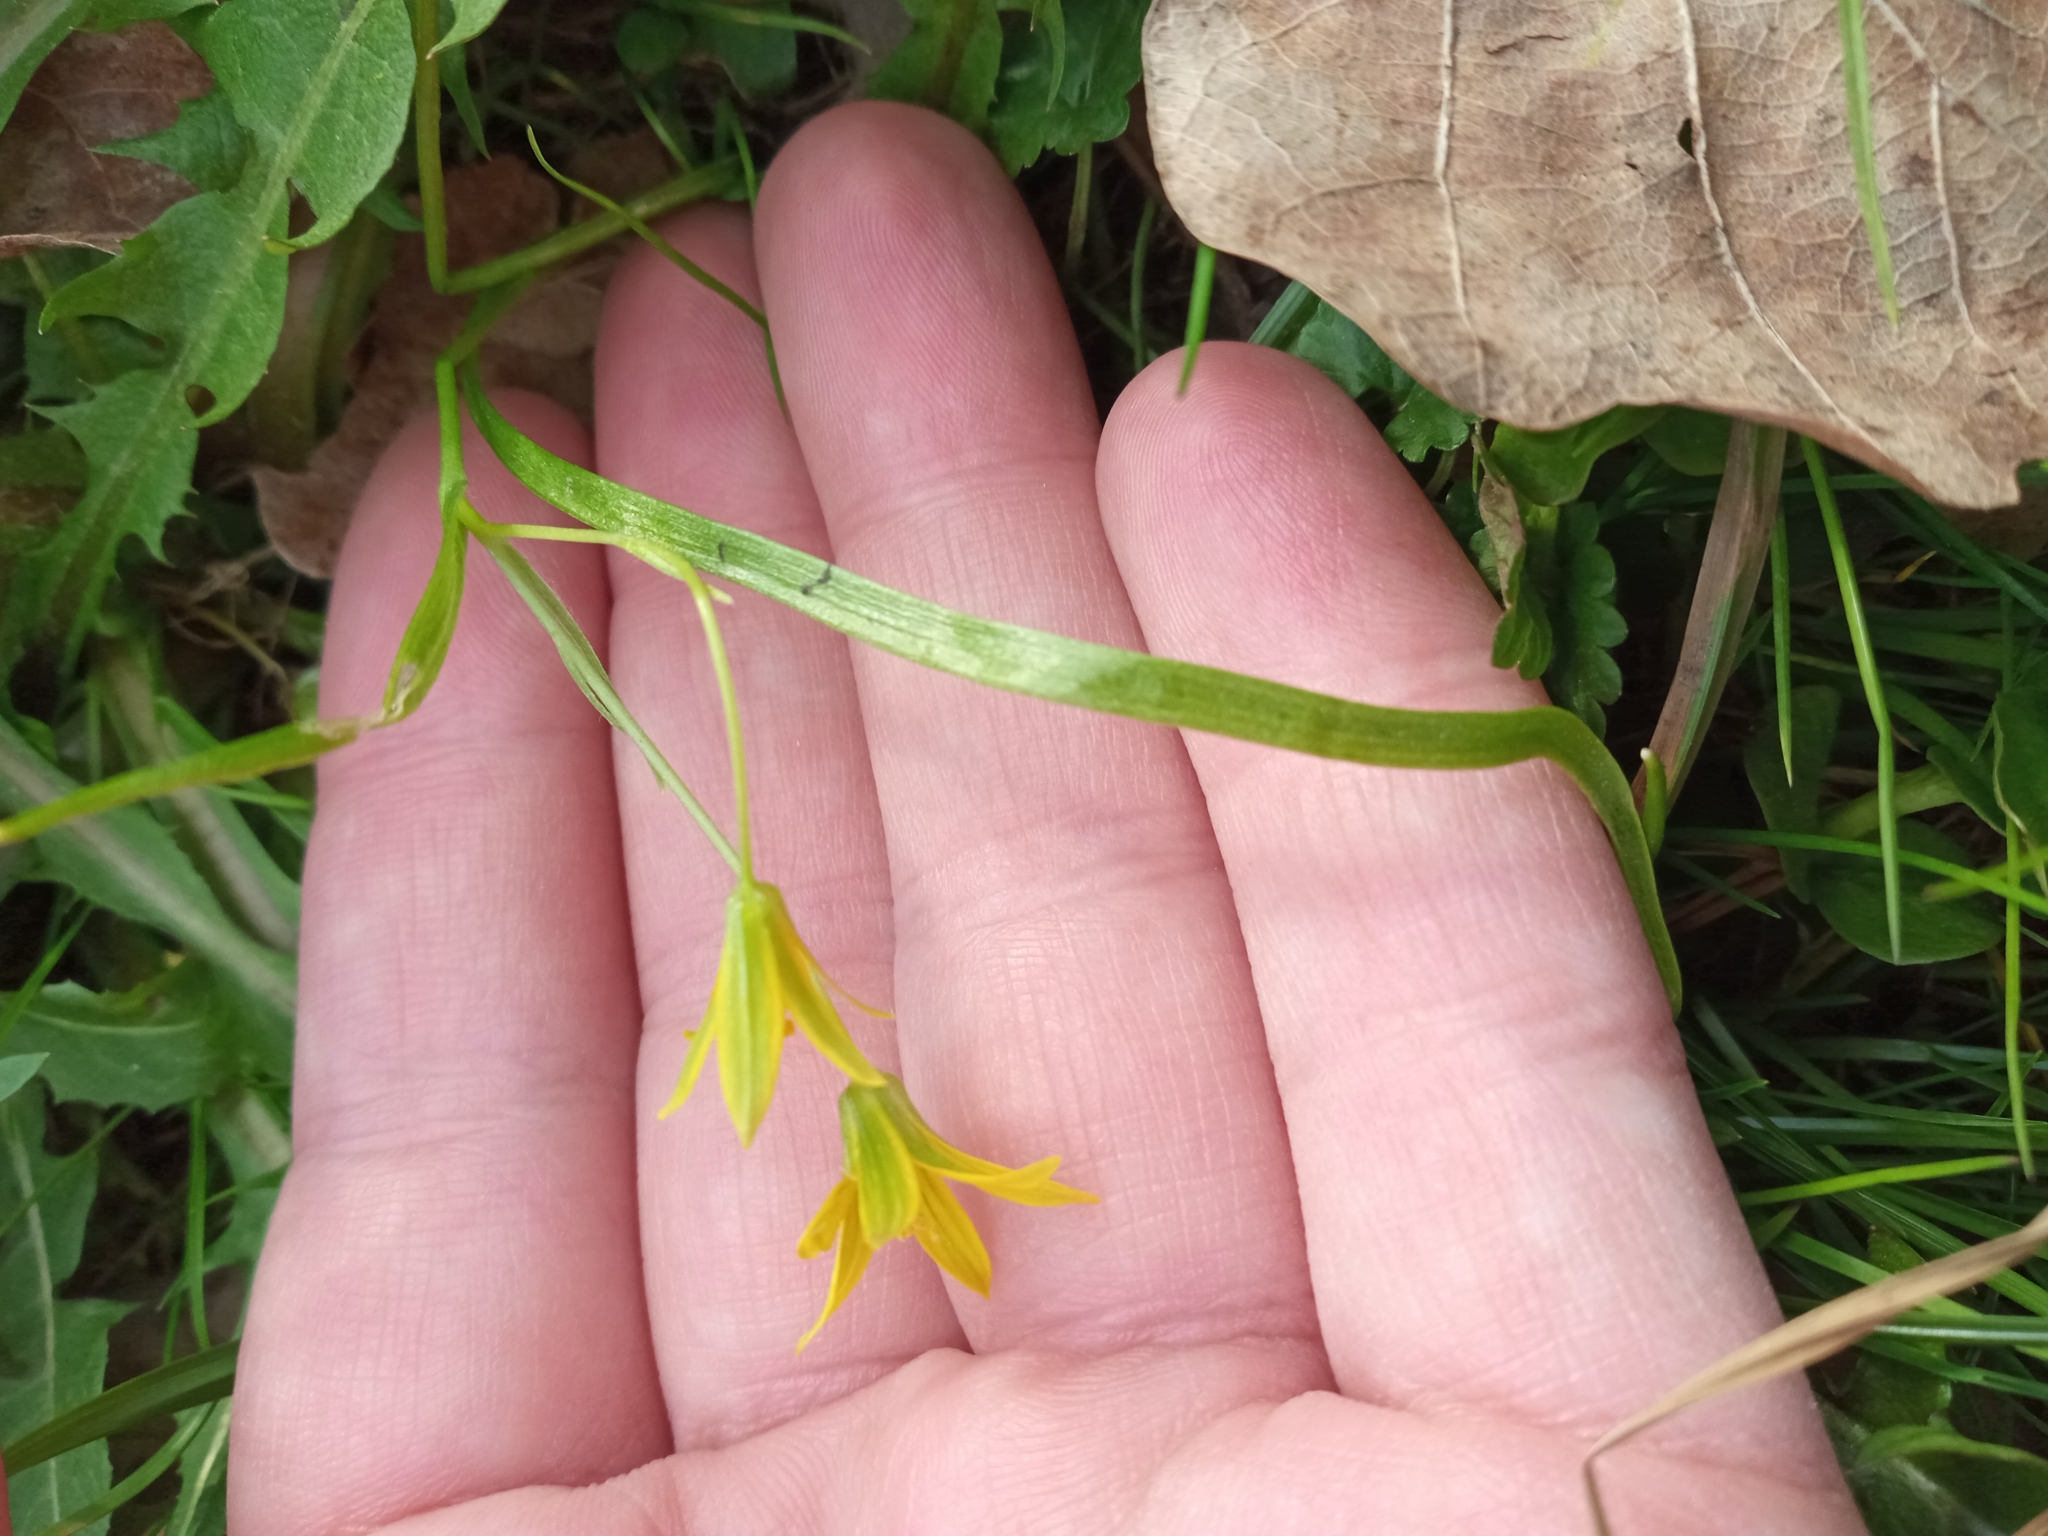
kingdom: Plantae
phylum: Tracheophyta
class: Liliopsida
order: Liliales
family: Liliaceae
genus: Gagea
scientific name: Gagea minima
